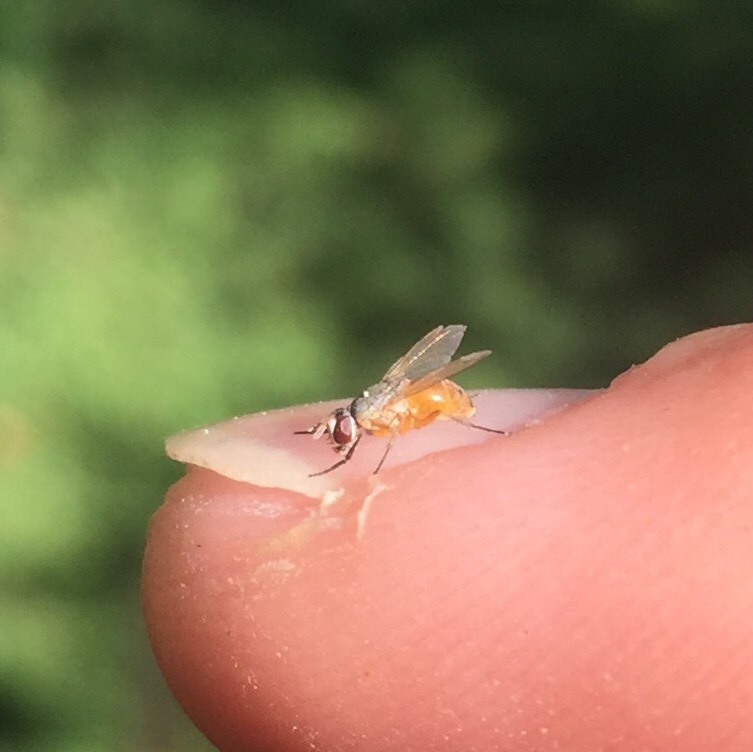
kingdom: Animalia
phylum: Arthropoda
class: Insecta
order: Diptera
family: Muscidae
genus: Atherigona
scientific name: Atherigona reversura
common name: Bermudagrass stem maggot
